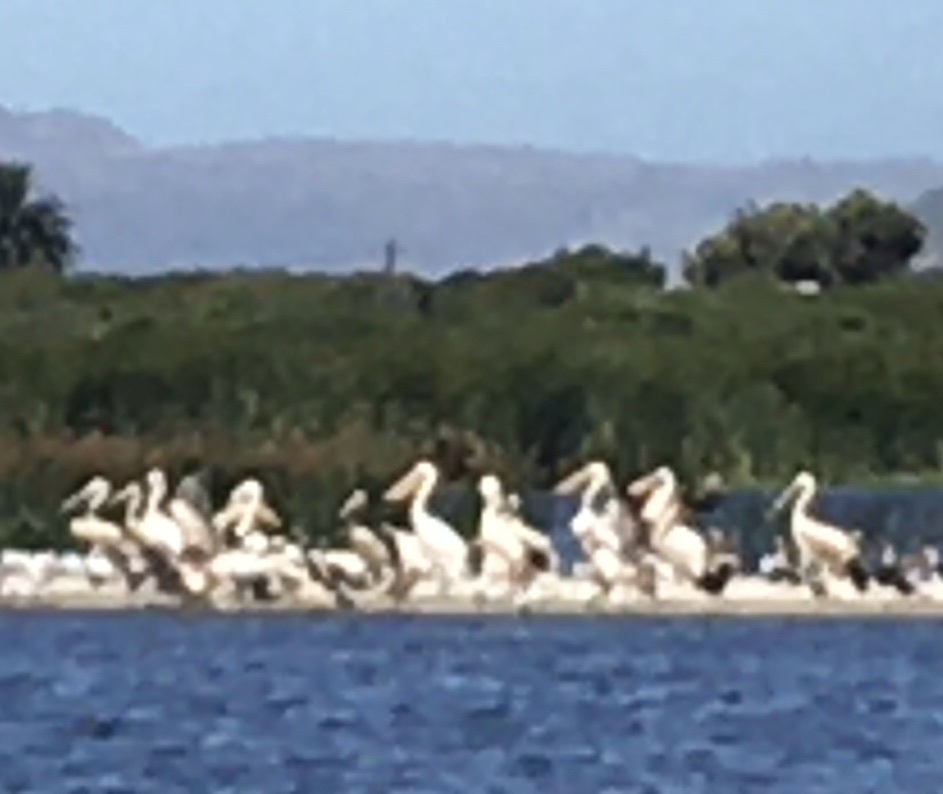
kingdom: Animalia
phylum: Chordata
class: Aves
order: Pelecaniformes
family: Pelecanidae
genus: Pelecanus
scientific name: Pelecanus onocrotalus
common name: Great white pelican
